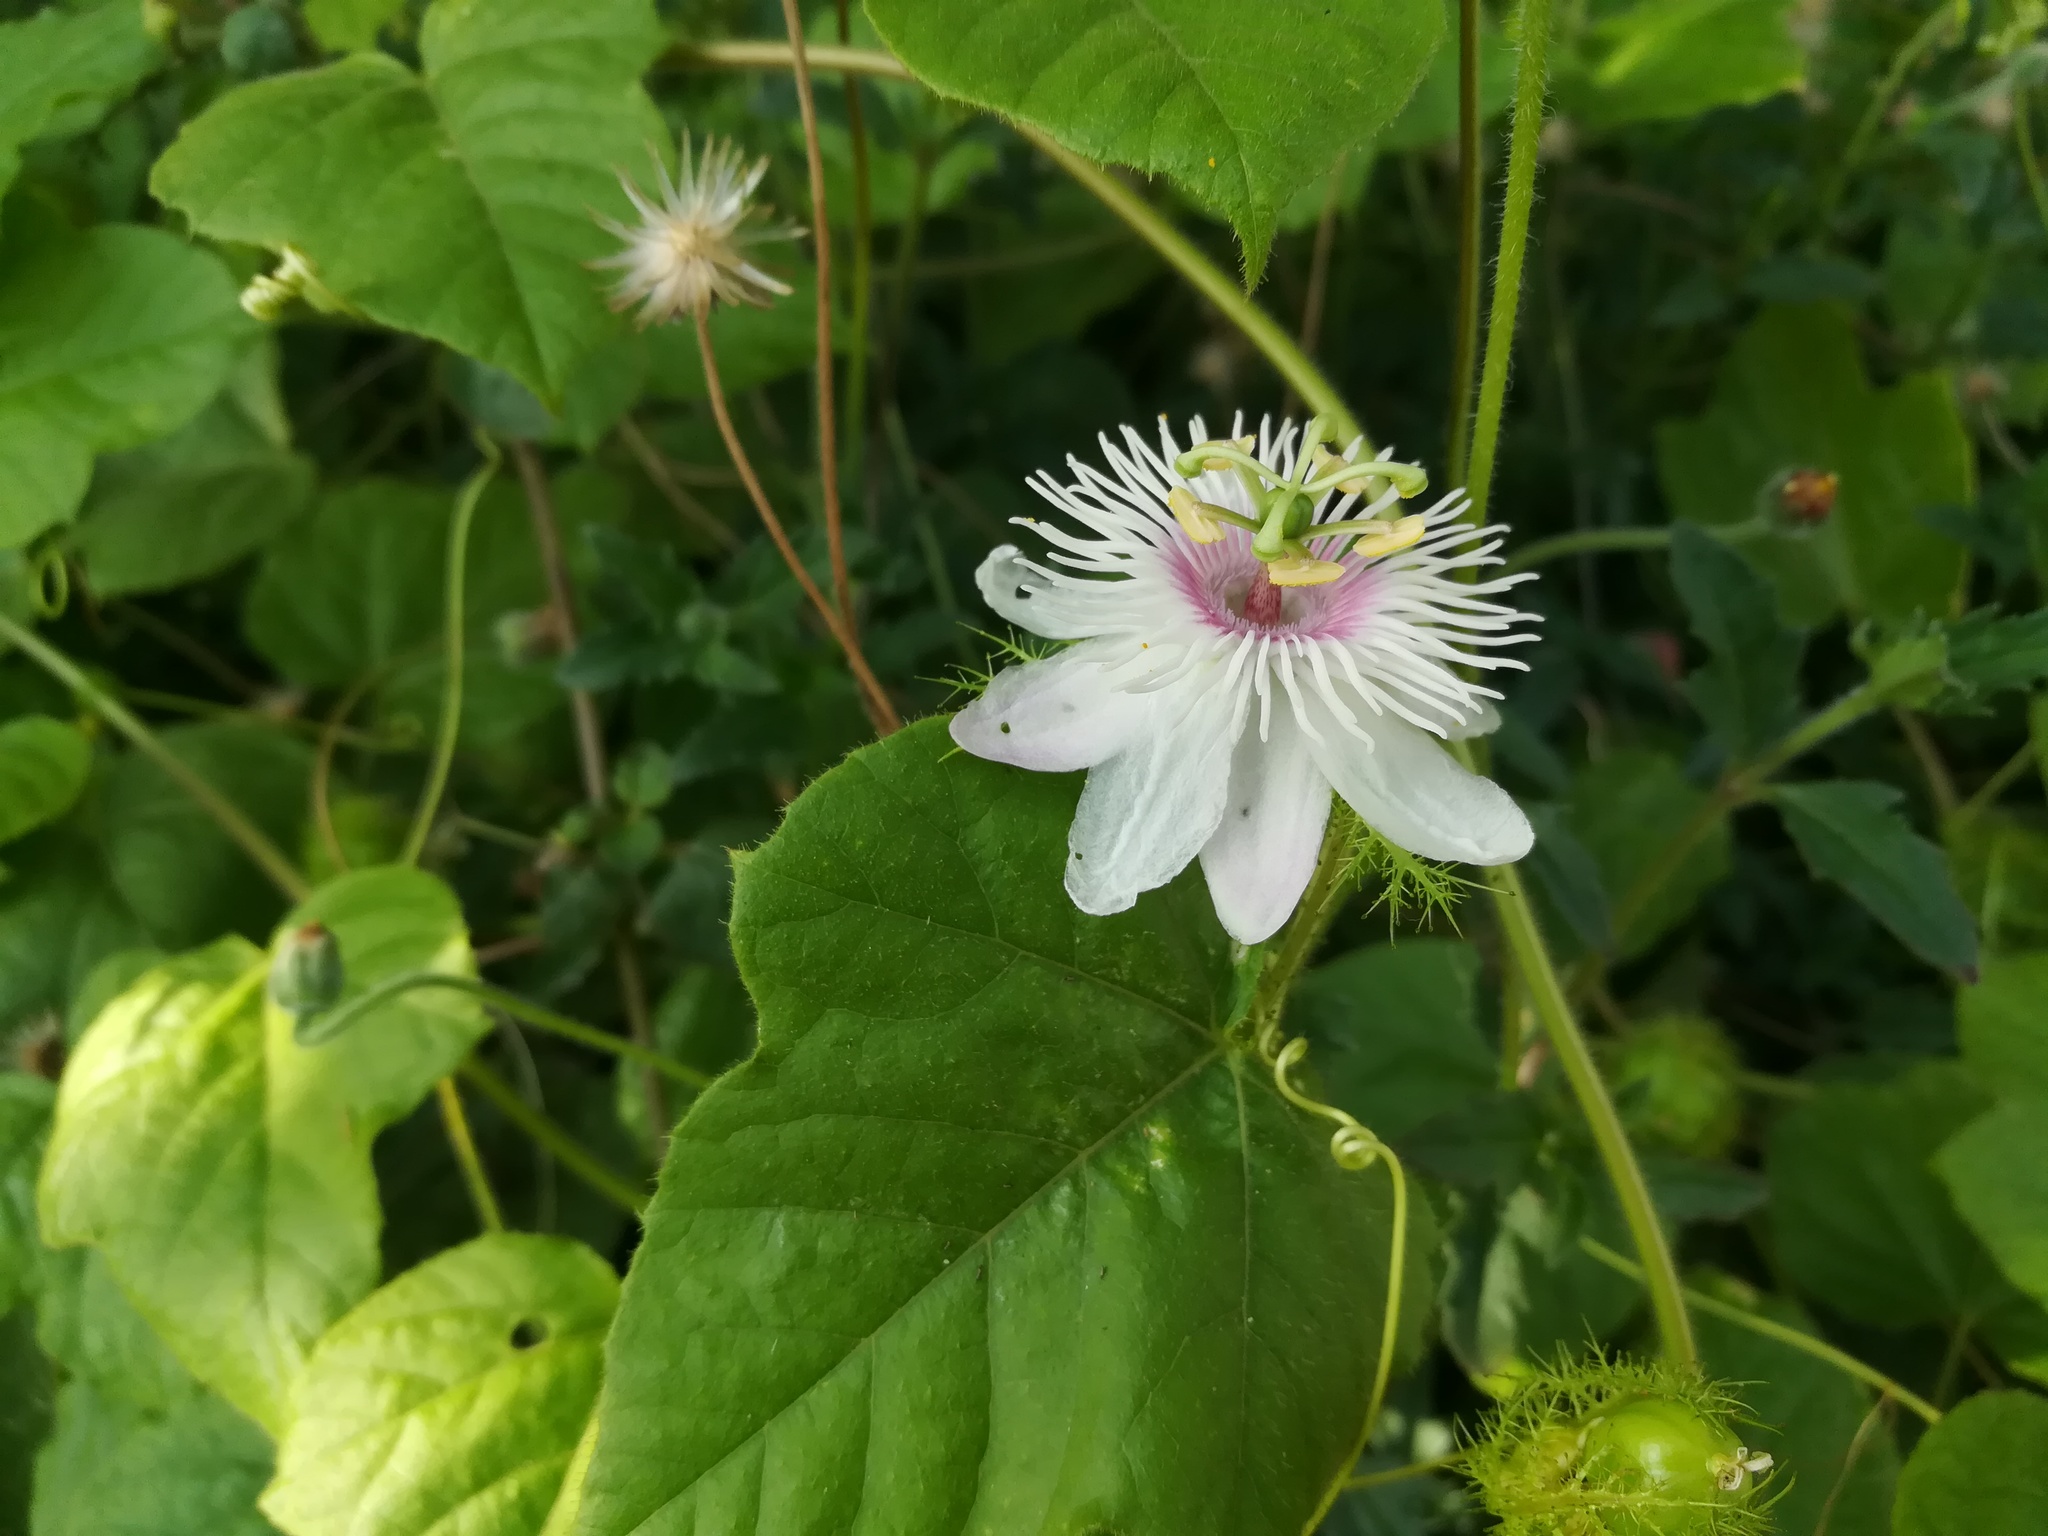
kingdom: Plantae
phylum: Tracheophyta
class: Magnoliopsida
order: Malpighiales
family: Passifloraceae
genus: Passiflora
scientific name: Passiflora foetida
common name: Fetid passionflower
